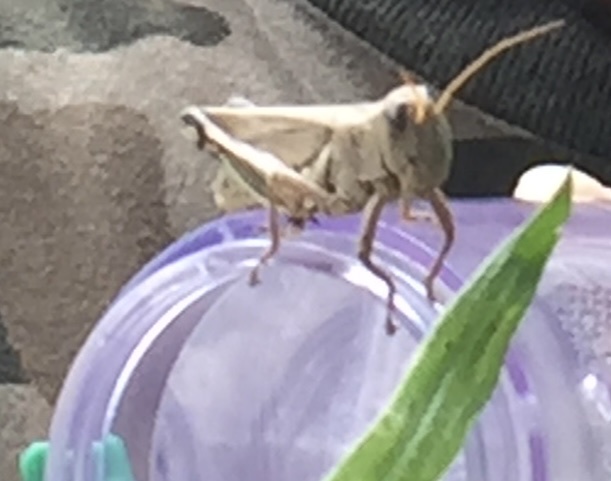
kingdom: Animalia
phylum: Arthropoda
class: Insecta
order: Orthoptera
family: Acrididae
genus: Melanoplus
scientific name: Melanoplus differentialis
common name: Differential grasshopper
